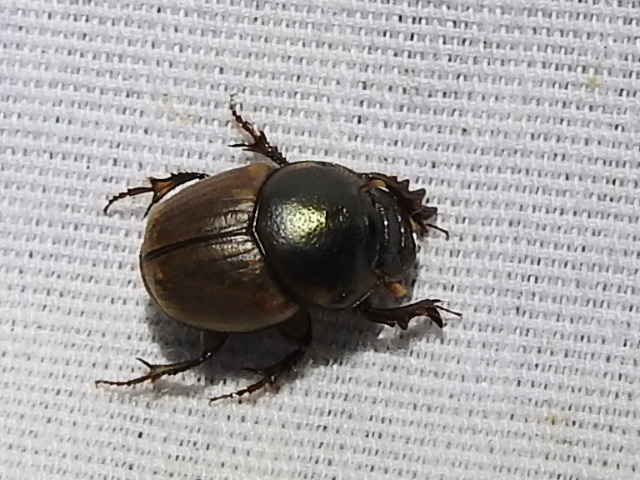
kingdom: Animalia
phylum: Arthropoda
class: Insecta
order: Coleoptera
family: Scarabaeidae
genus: Digitonthophagus
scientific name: Digitonthophagus gazella
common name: Brown dung beetle
